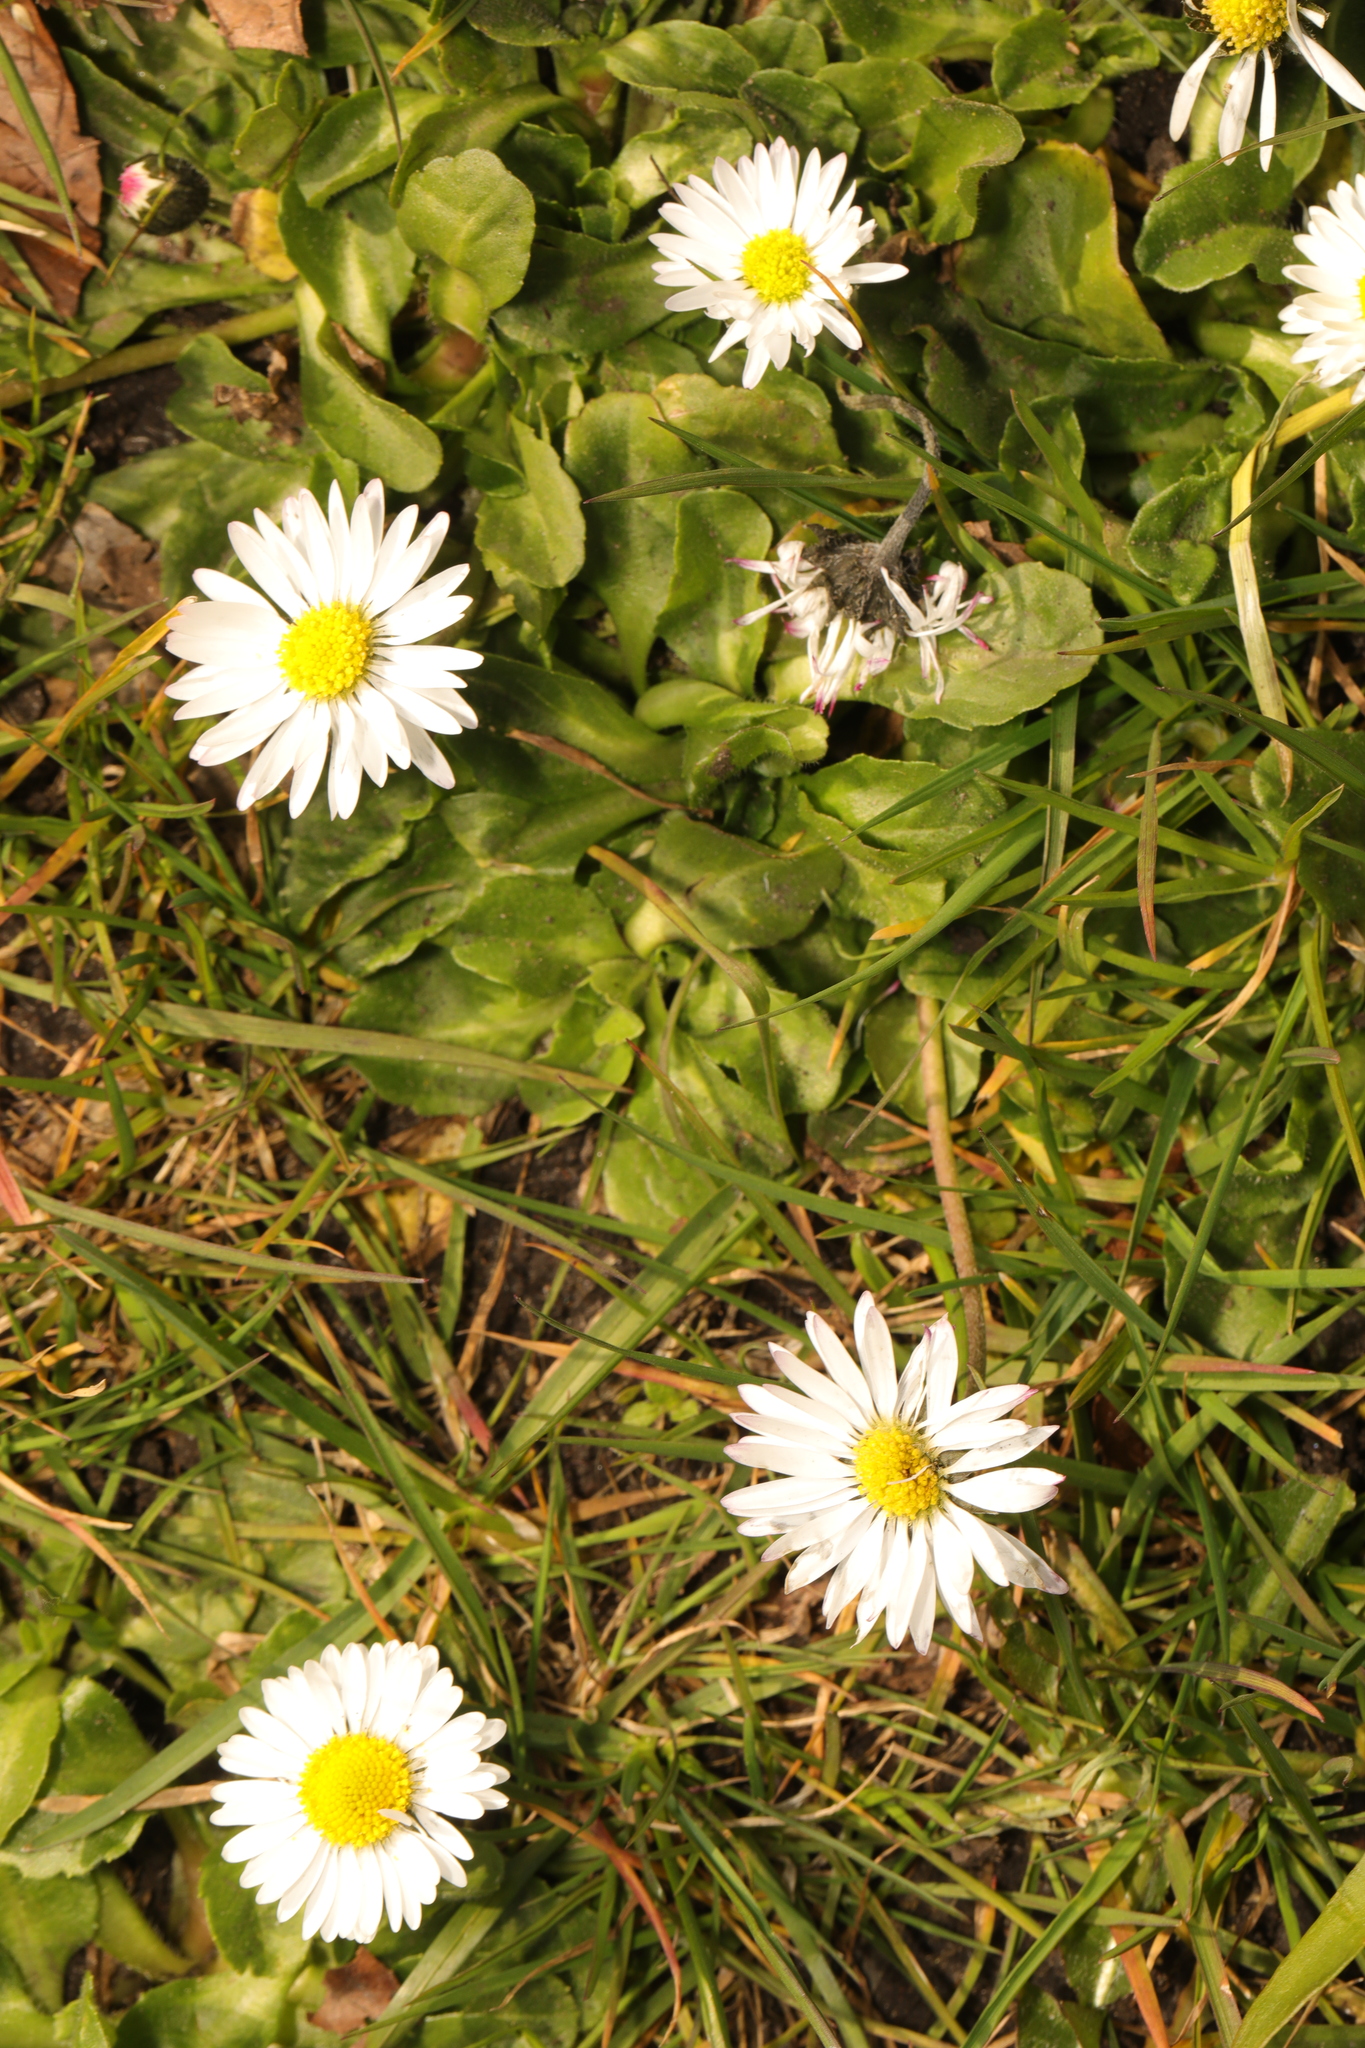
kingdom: Plantae
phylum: Tracheophyta
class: Magnoliopsida
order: Asterales
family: Asteraceae
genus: Bellis
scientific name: Bellis perennis
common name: Lawndaisy
